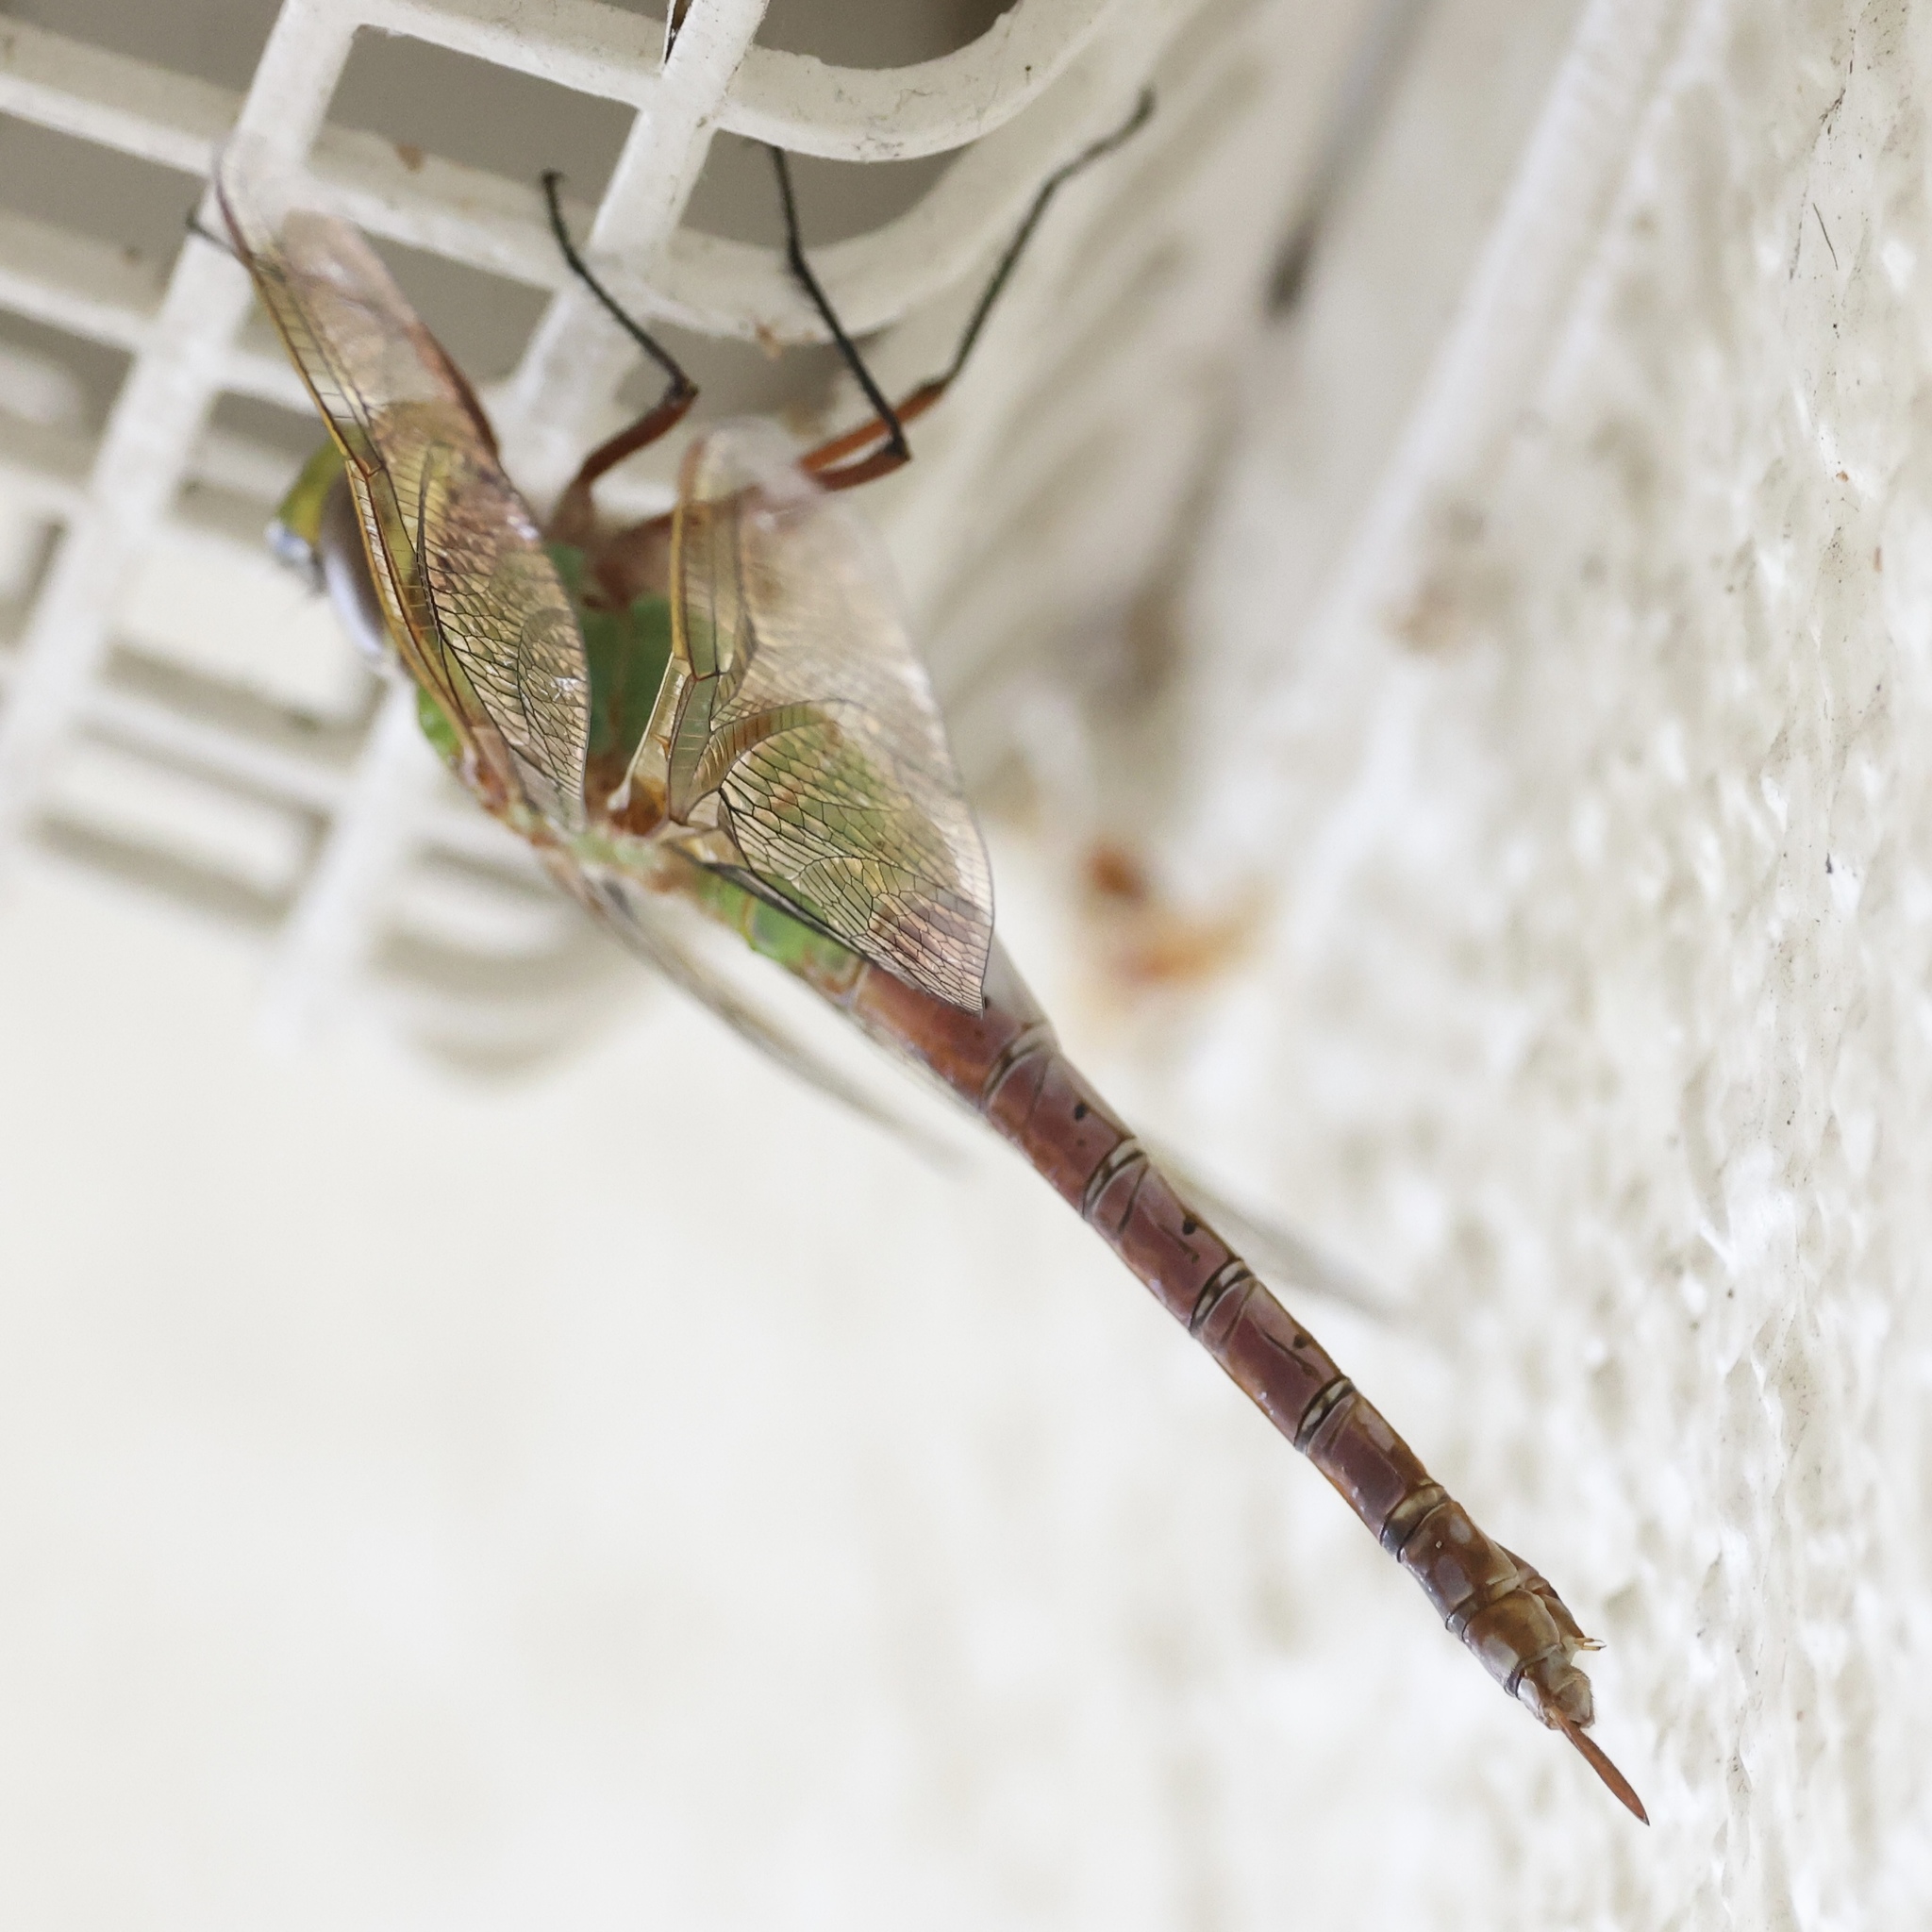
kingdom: Animalia
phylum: Arthropoda
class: Insecta
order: Odonata
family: Aeshnidae
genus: Anax
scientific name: Anax junius
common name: Common green darner
